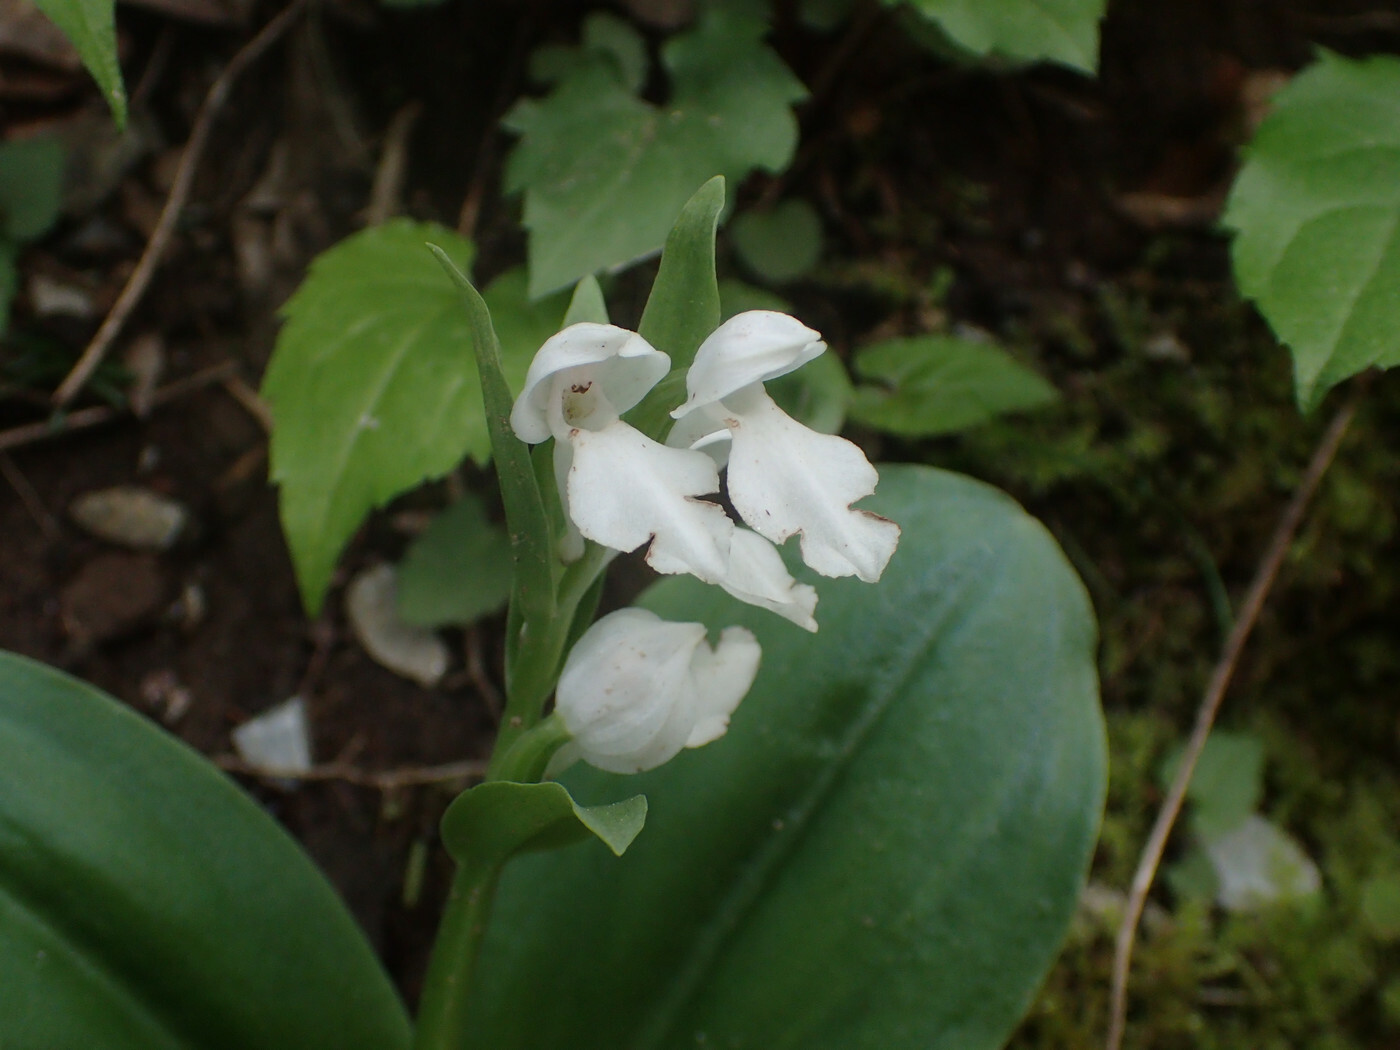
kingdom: Plantae
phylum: Tracheophyta
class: Liliopsida
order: Asparagales
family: Orchidaceae
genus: Galearis
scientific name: Galearis spectabilis
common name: Purple-hooded orchis
